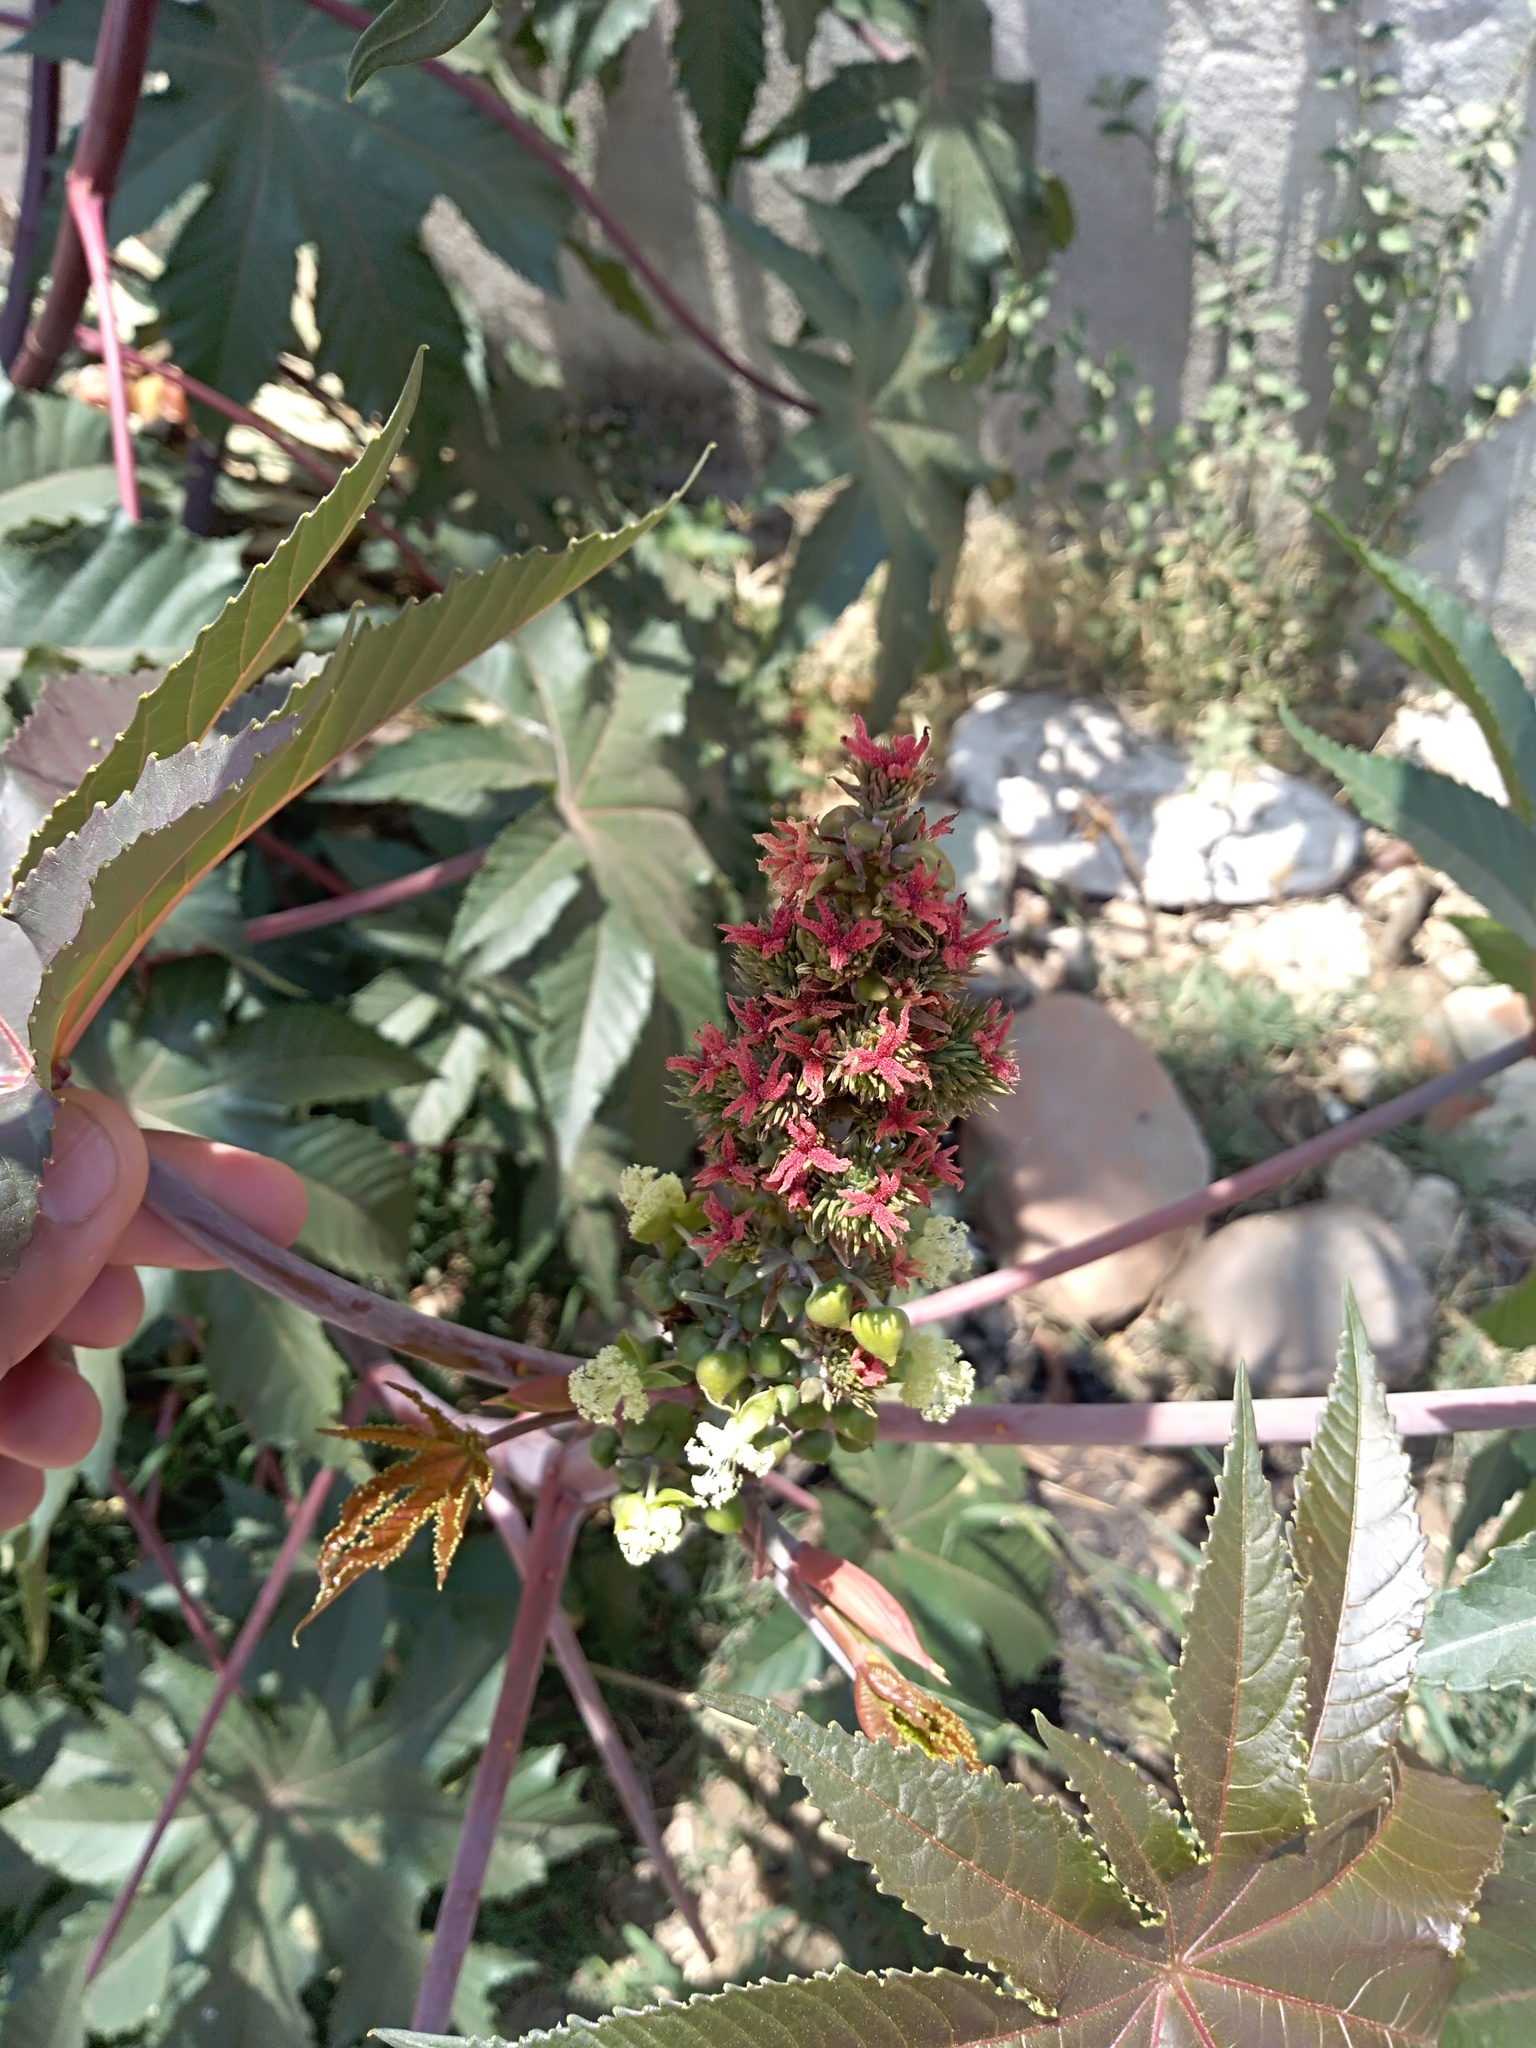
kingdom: Plantae
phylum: Tracheophyta
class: Magnoliopsida
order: Malpighiales
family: Euphorbiaceae
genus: Ricinus
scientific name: Ricinus communis
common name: Castor-oil-plant
